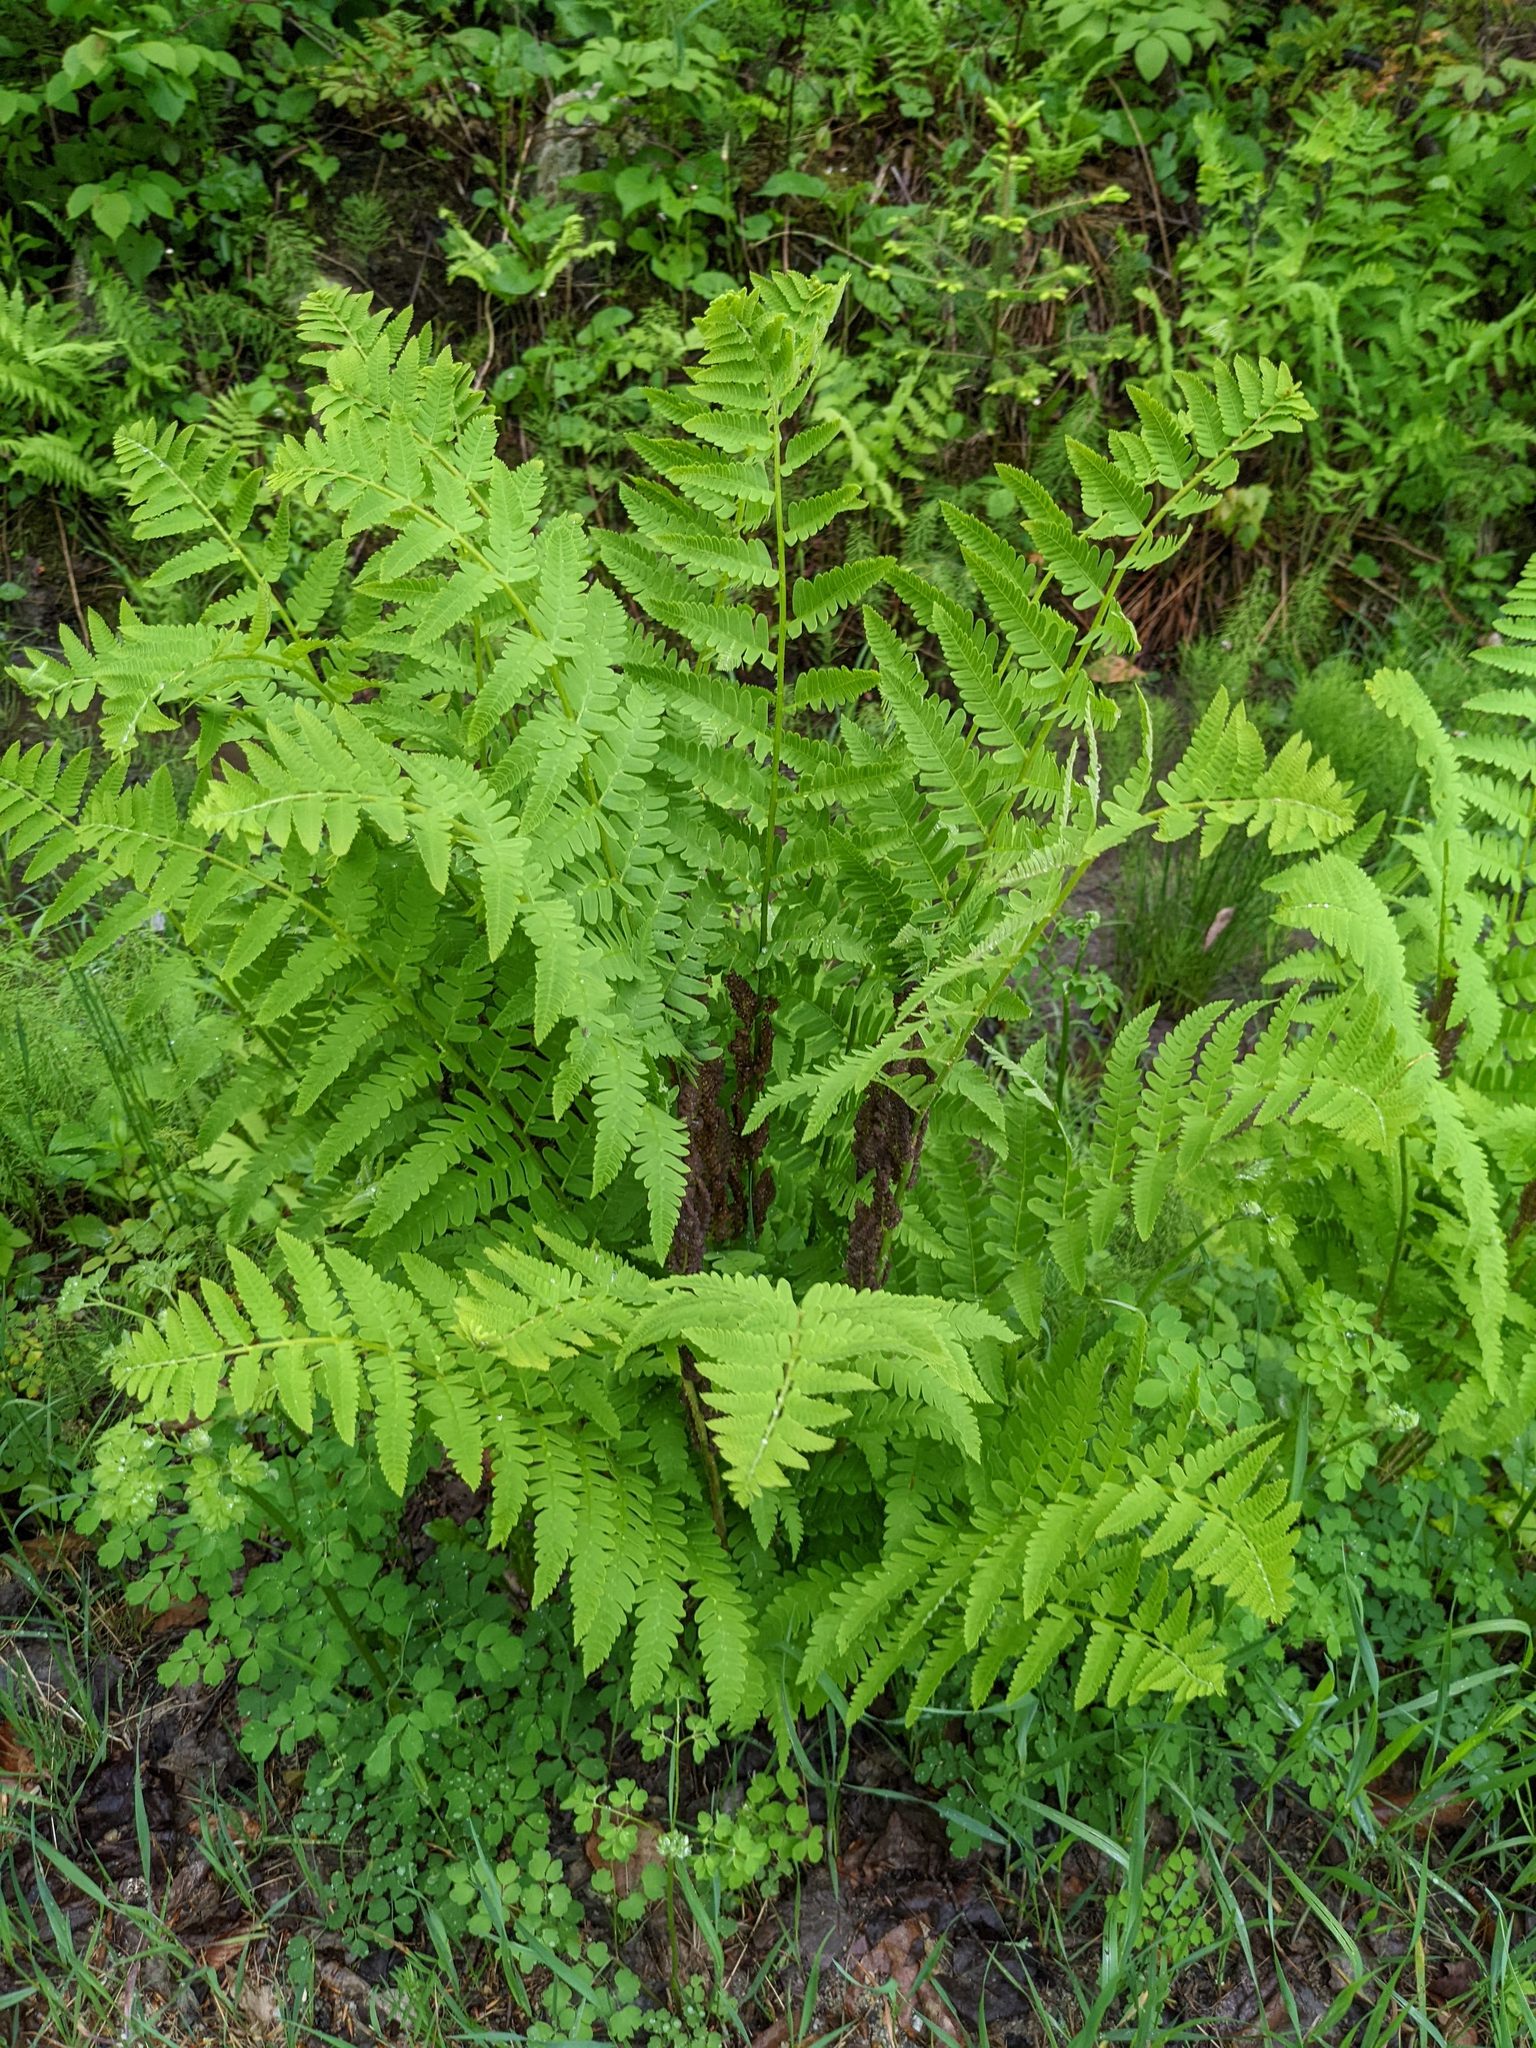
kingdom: Plantae
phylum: Tracheophyta
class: Polypodiopsida
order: Osmundales
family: Osmundaceae
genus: Claytosmunda
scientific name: Claytosmunda claytoniana
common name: Clayton's fern
